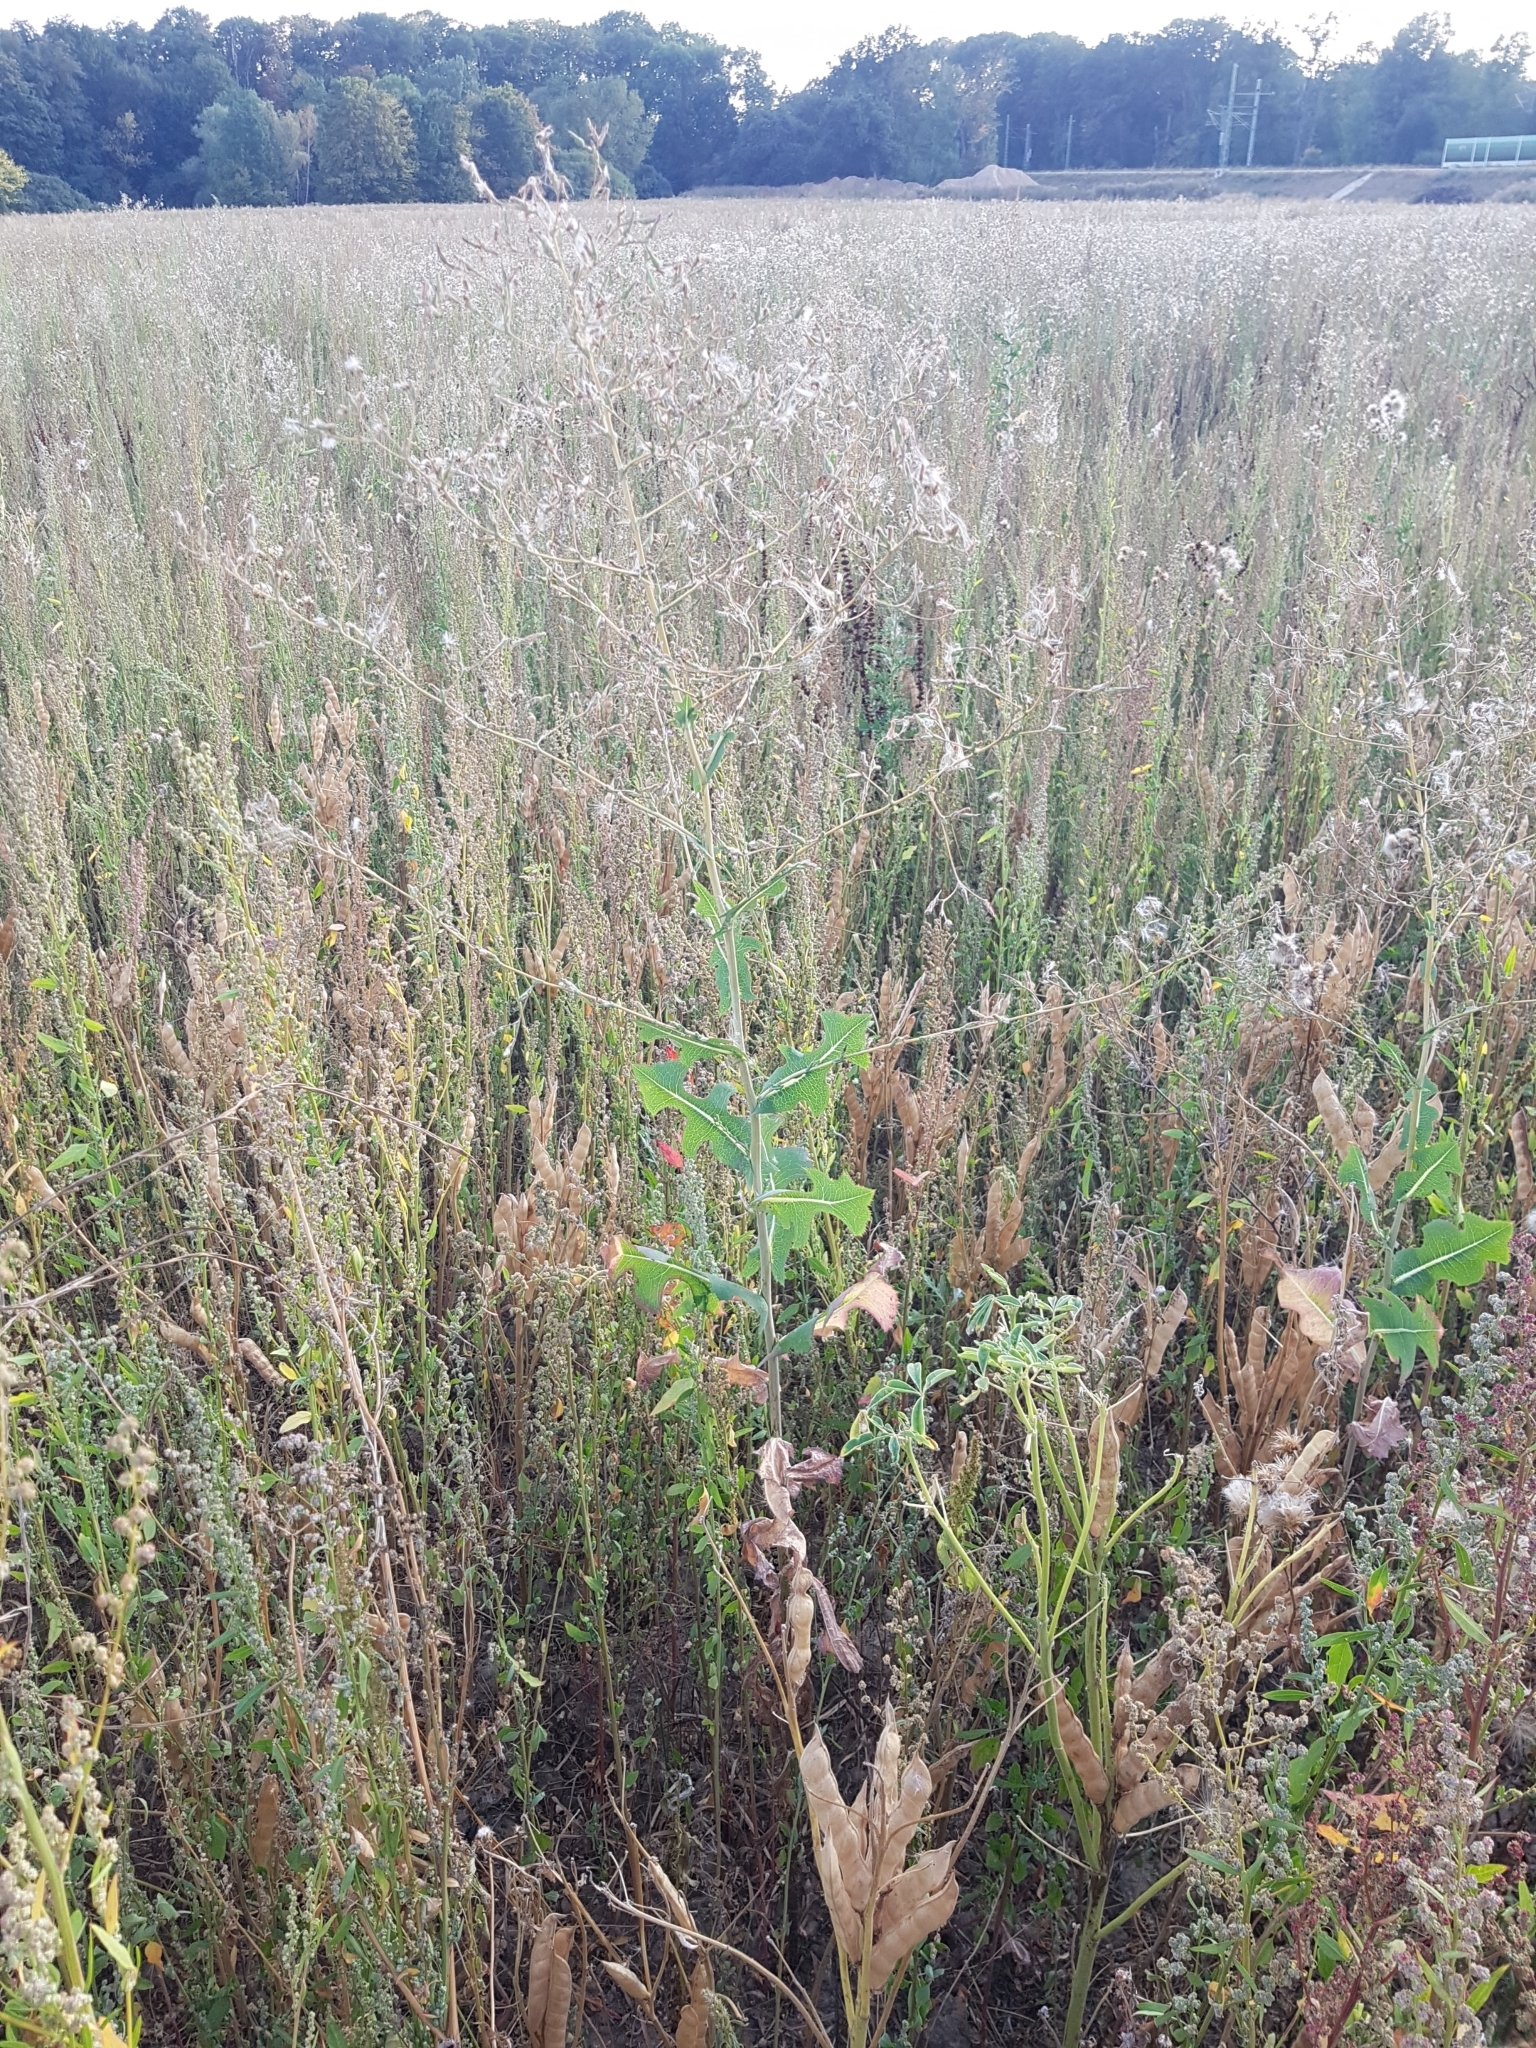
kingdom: Plantae
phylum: Tracheophyta
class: Magnoliopsida
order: Asterales
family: Asteraceae
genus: Lactuca
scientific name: Lactuca serriola
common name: Prickly lettuce
